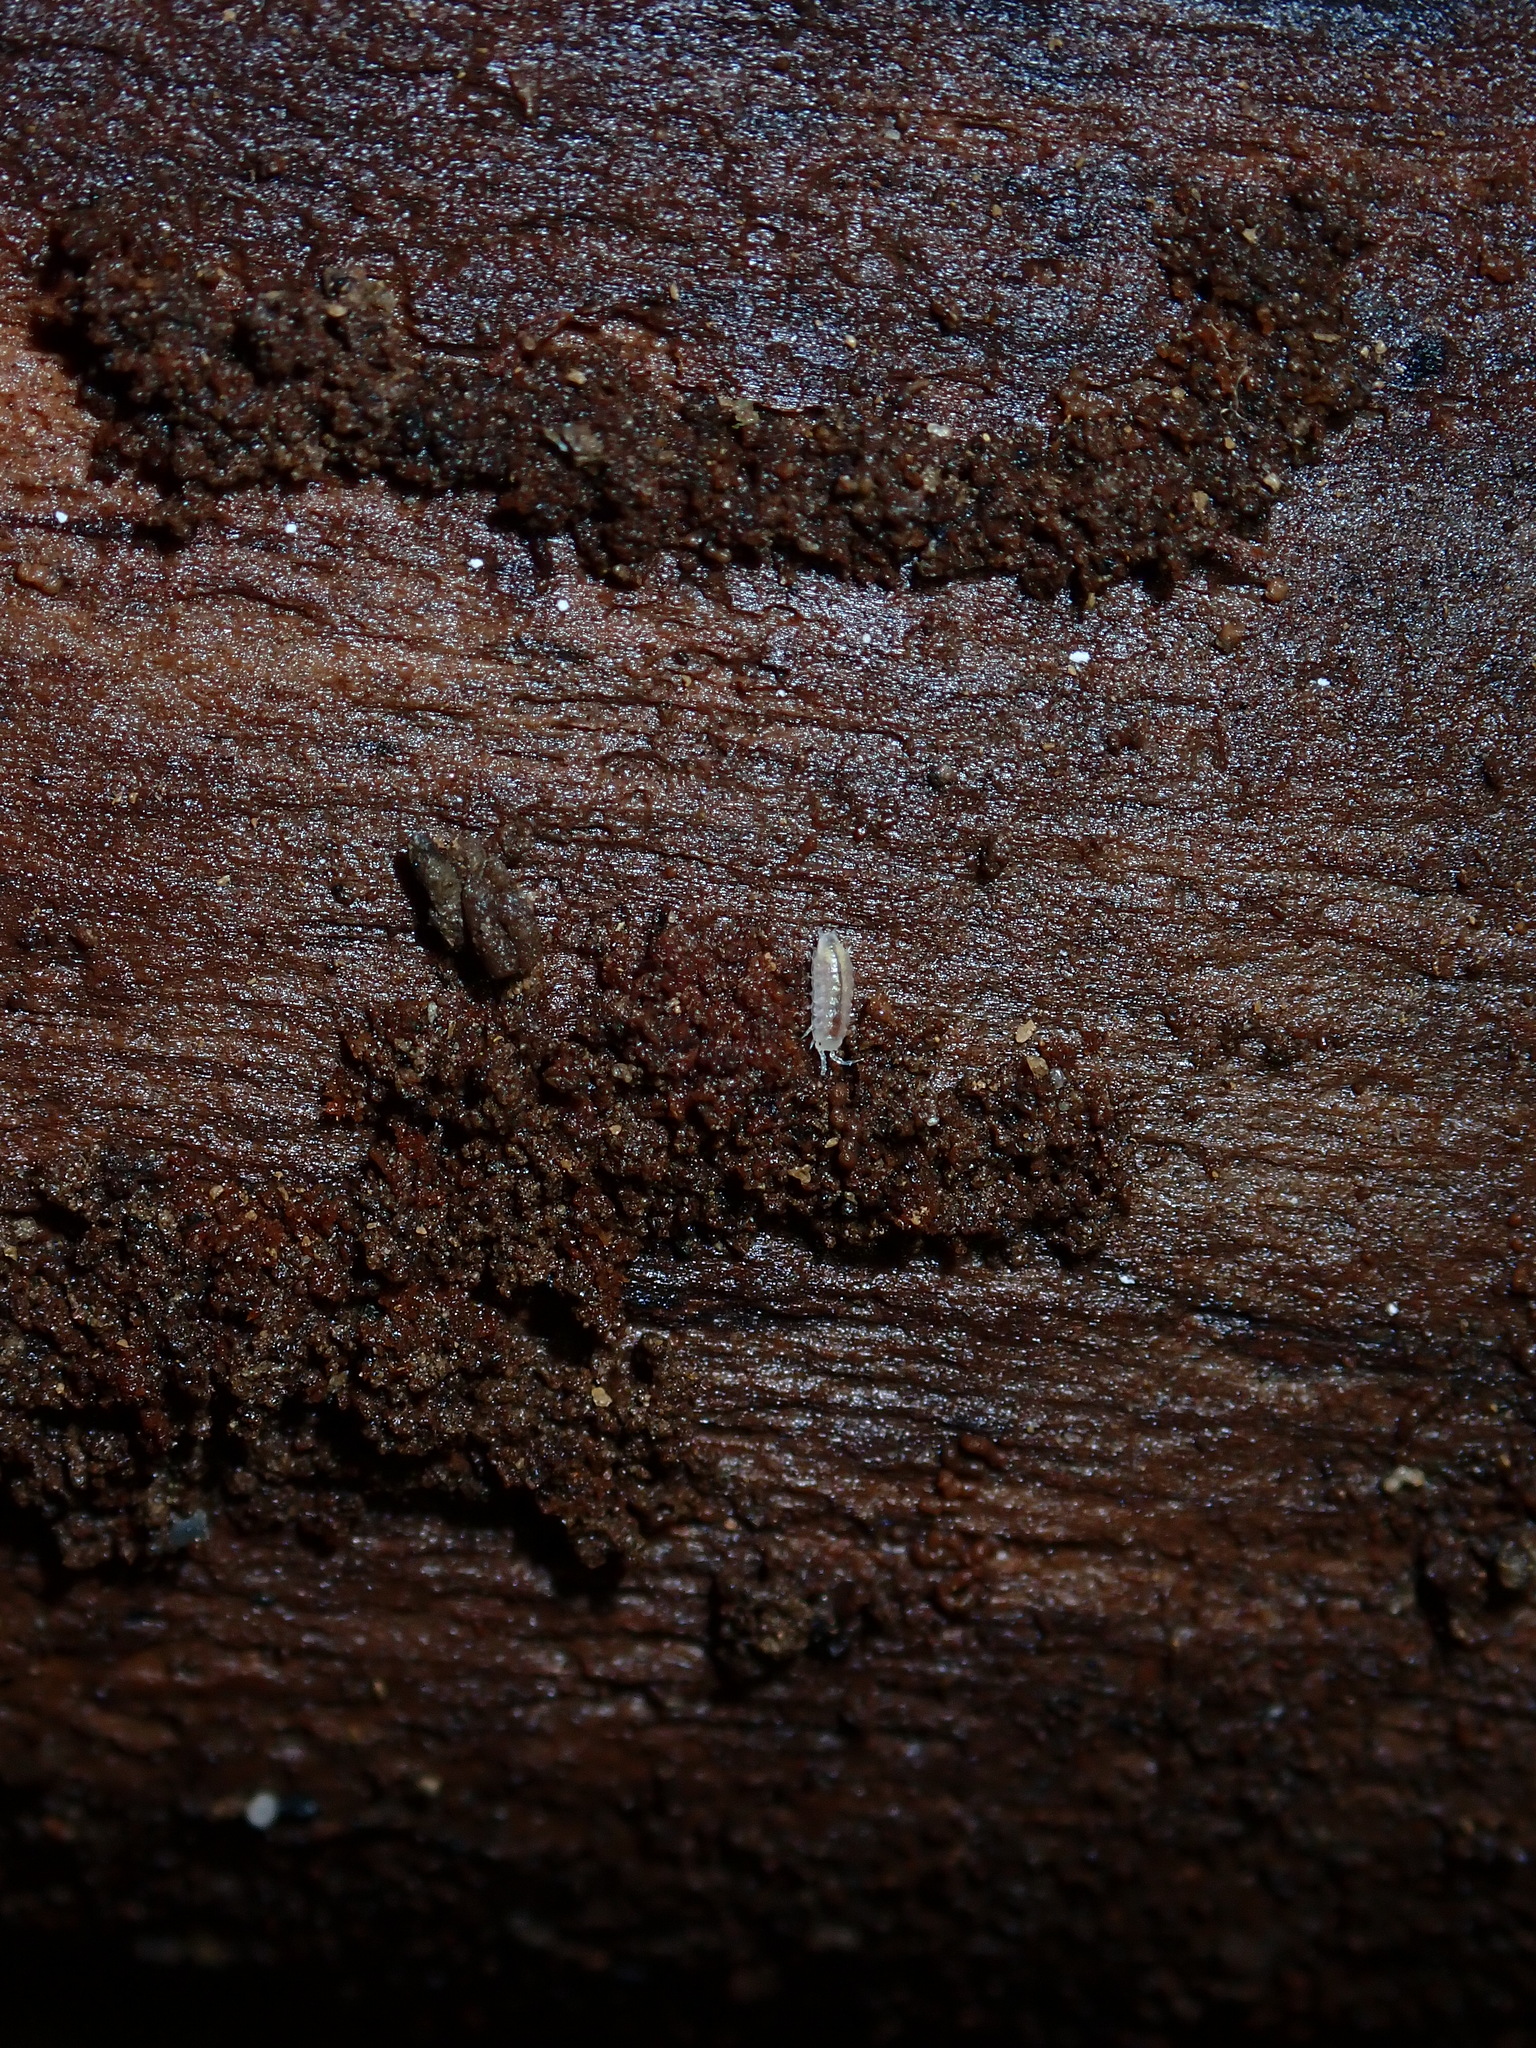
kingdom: Animalia
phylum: Arthropoda
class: Malacostraca
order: Isopoda
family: Trichoniscidae
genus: Trichoniscus
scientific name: Trichoniscus pygmaeus
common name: Isopod
